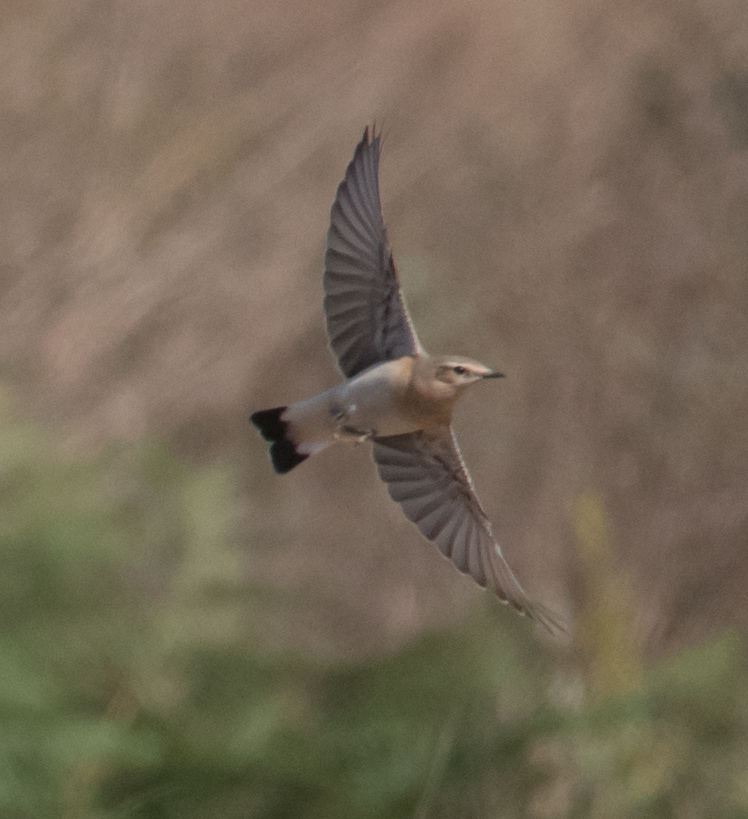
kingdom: Animalia
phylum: Chordata
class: Aves
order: Passeriformes
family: Muscicapidae
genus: Oenanthe
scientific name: Oenanthe oenanthe
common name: Northern wheatear
